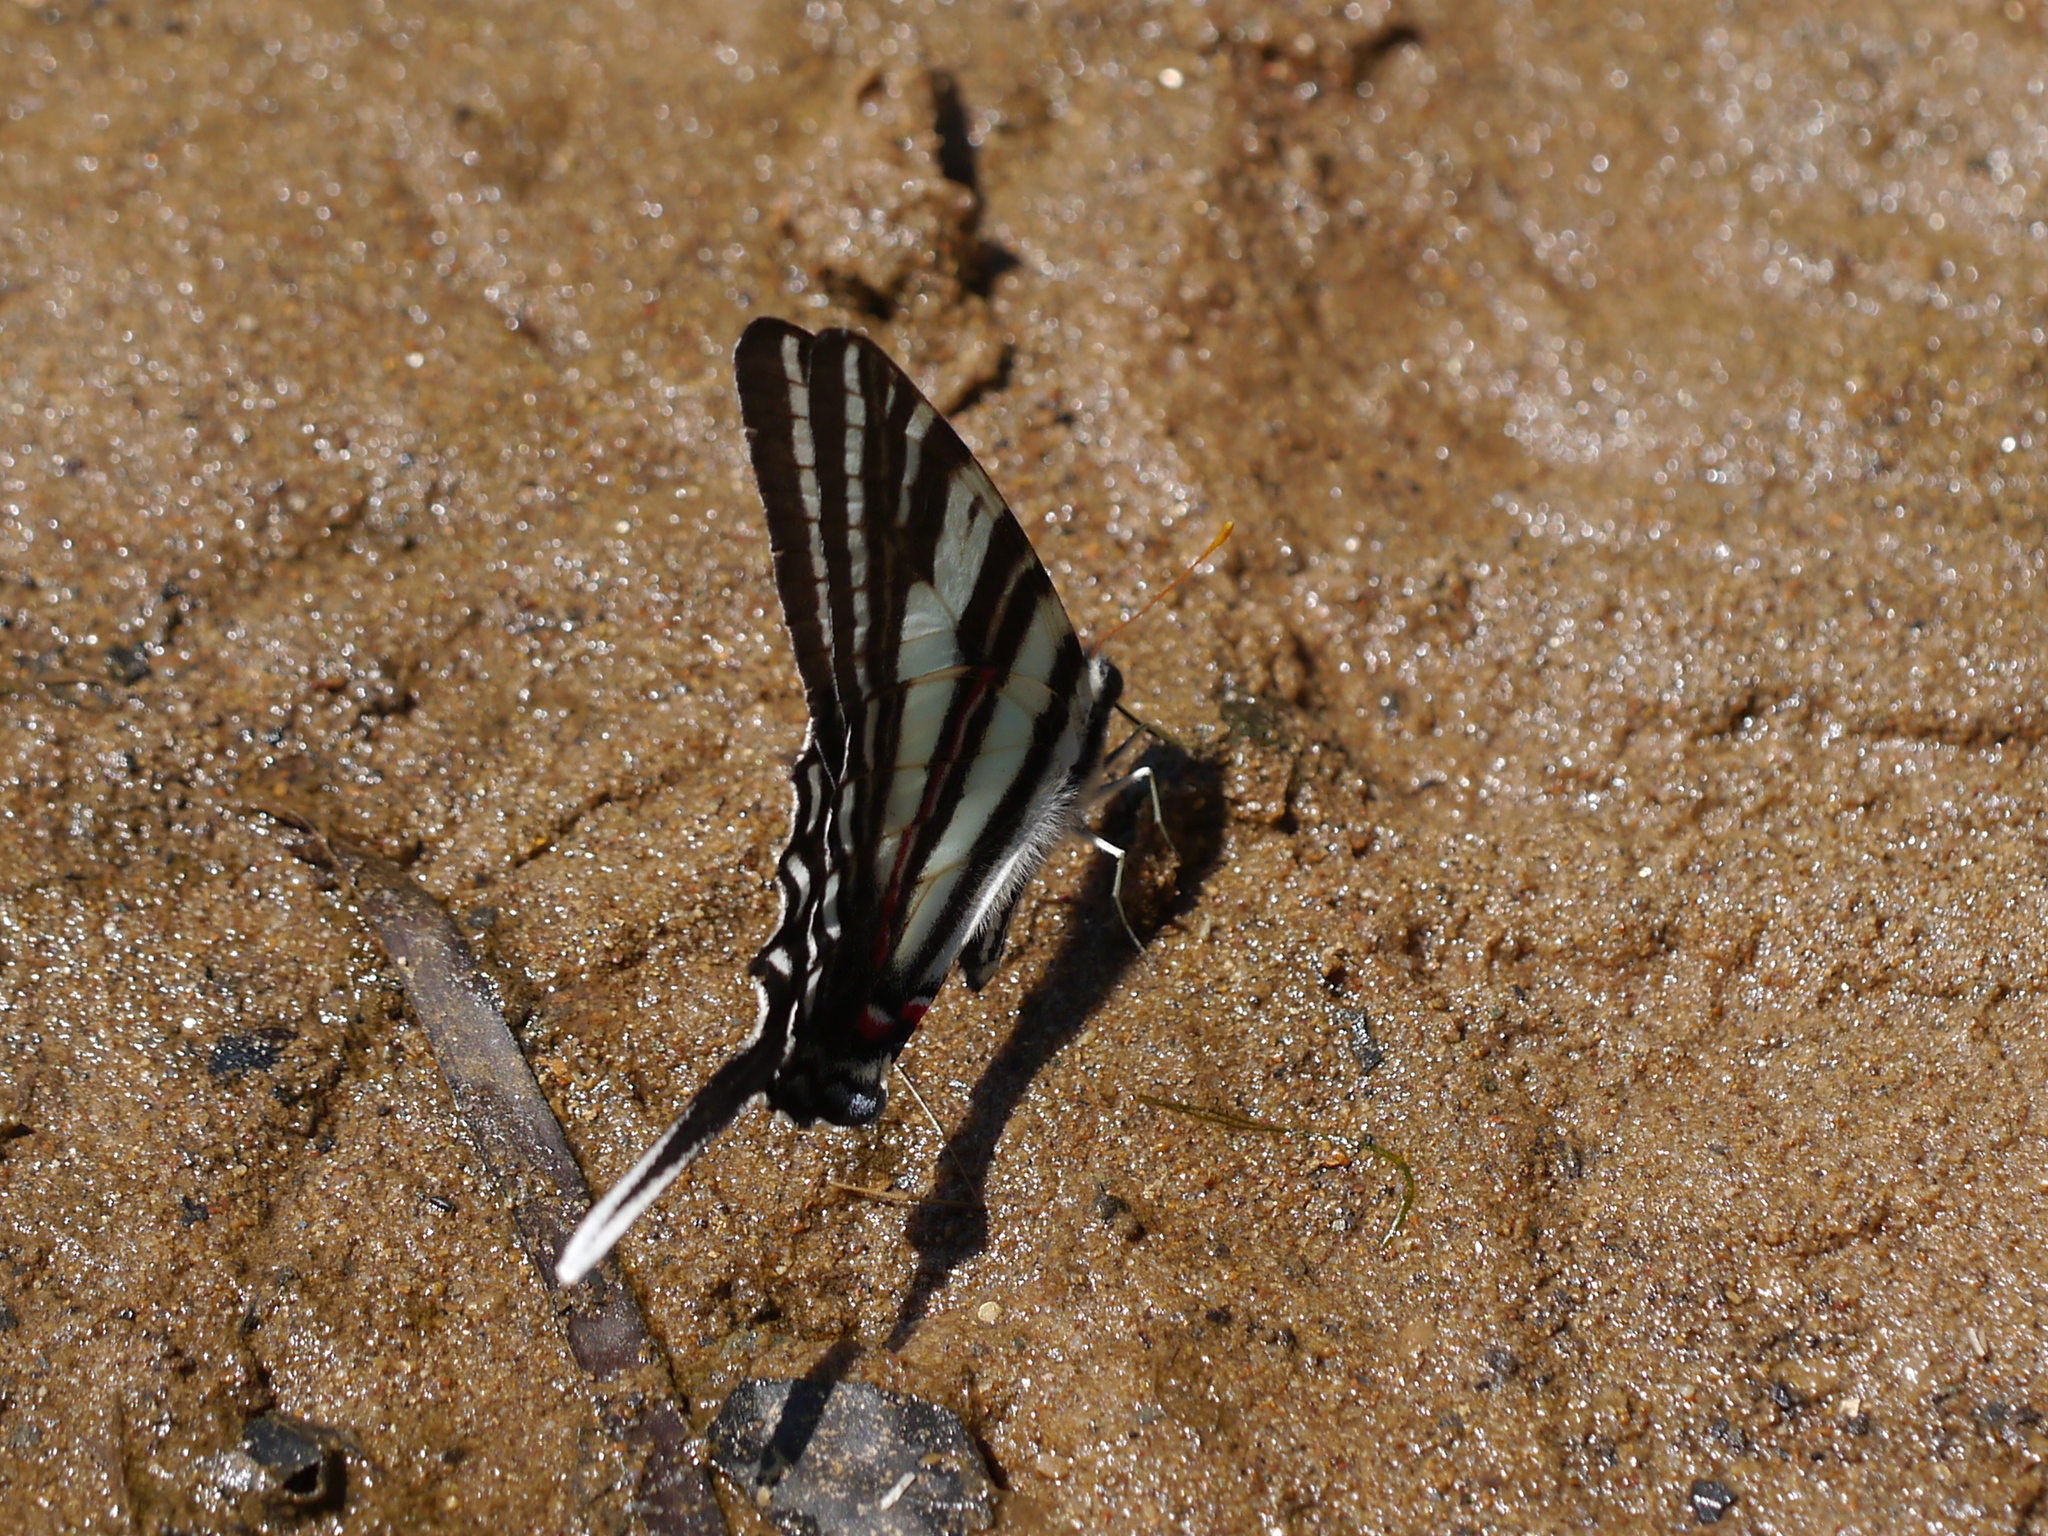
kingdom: Animalia
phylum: Arthropoda
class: Insecta
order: Lepidoptera
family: Papilionidae
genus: Protographium
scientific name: Protographium marcellus
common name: Zebra swallowtail
